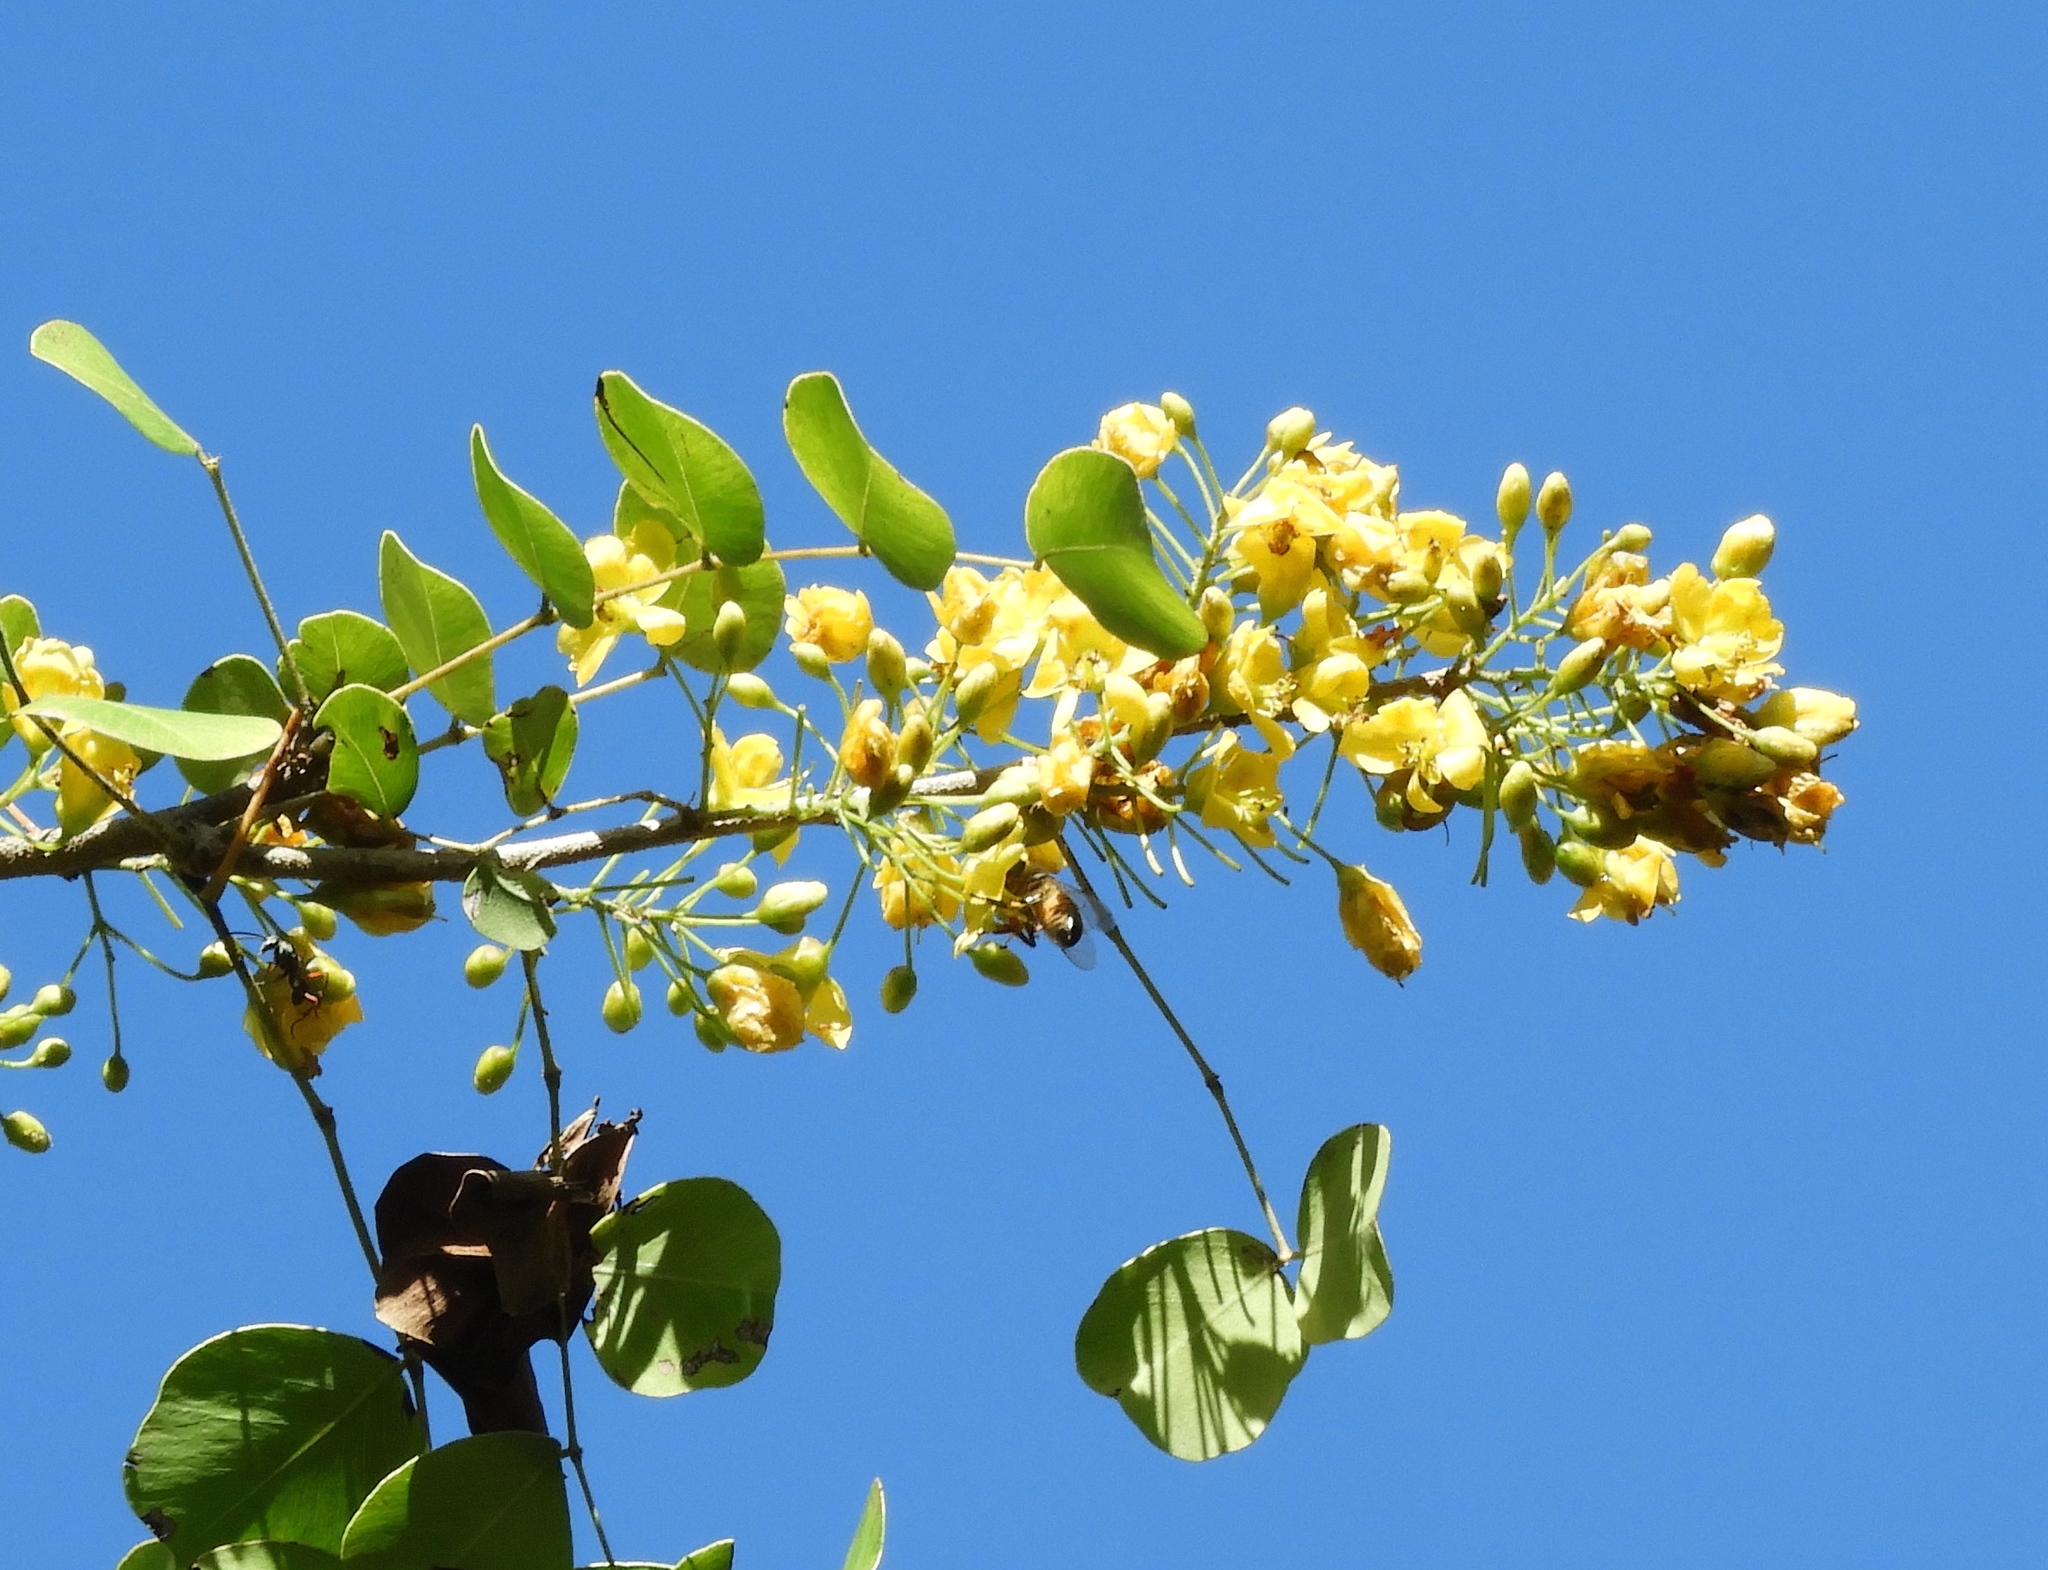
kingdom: Plantae
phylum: Tracheophyta
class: Magnoliopsida
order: Fabales
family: Fabaceae
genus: Haematoxylum
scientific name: Haematoxylum brasiletto
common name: Peachwood
